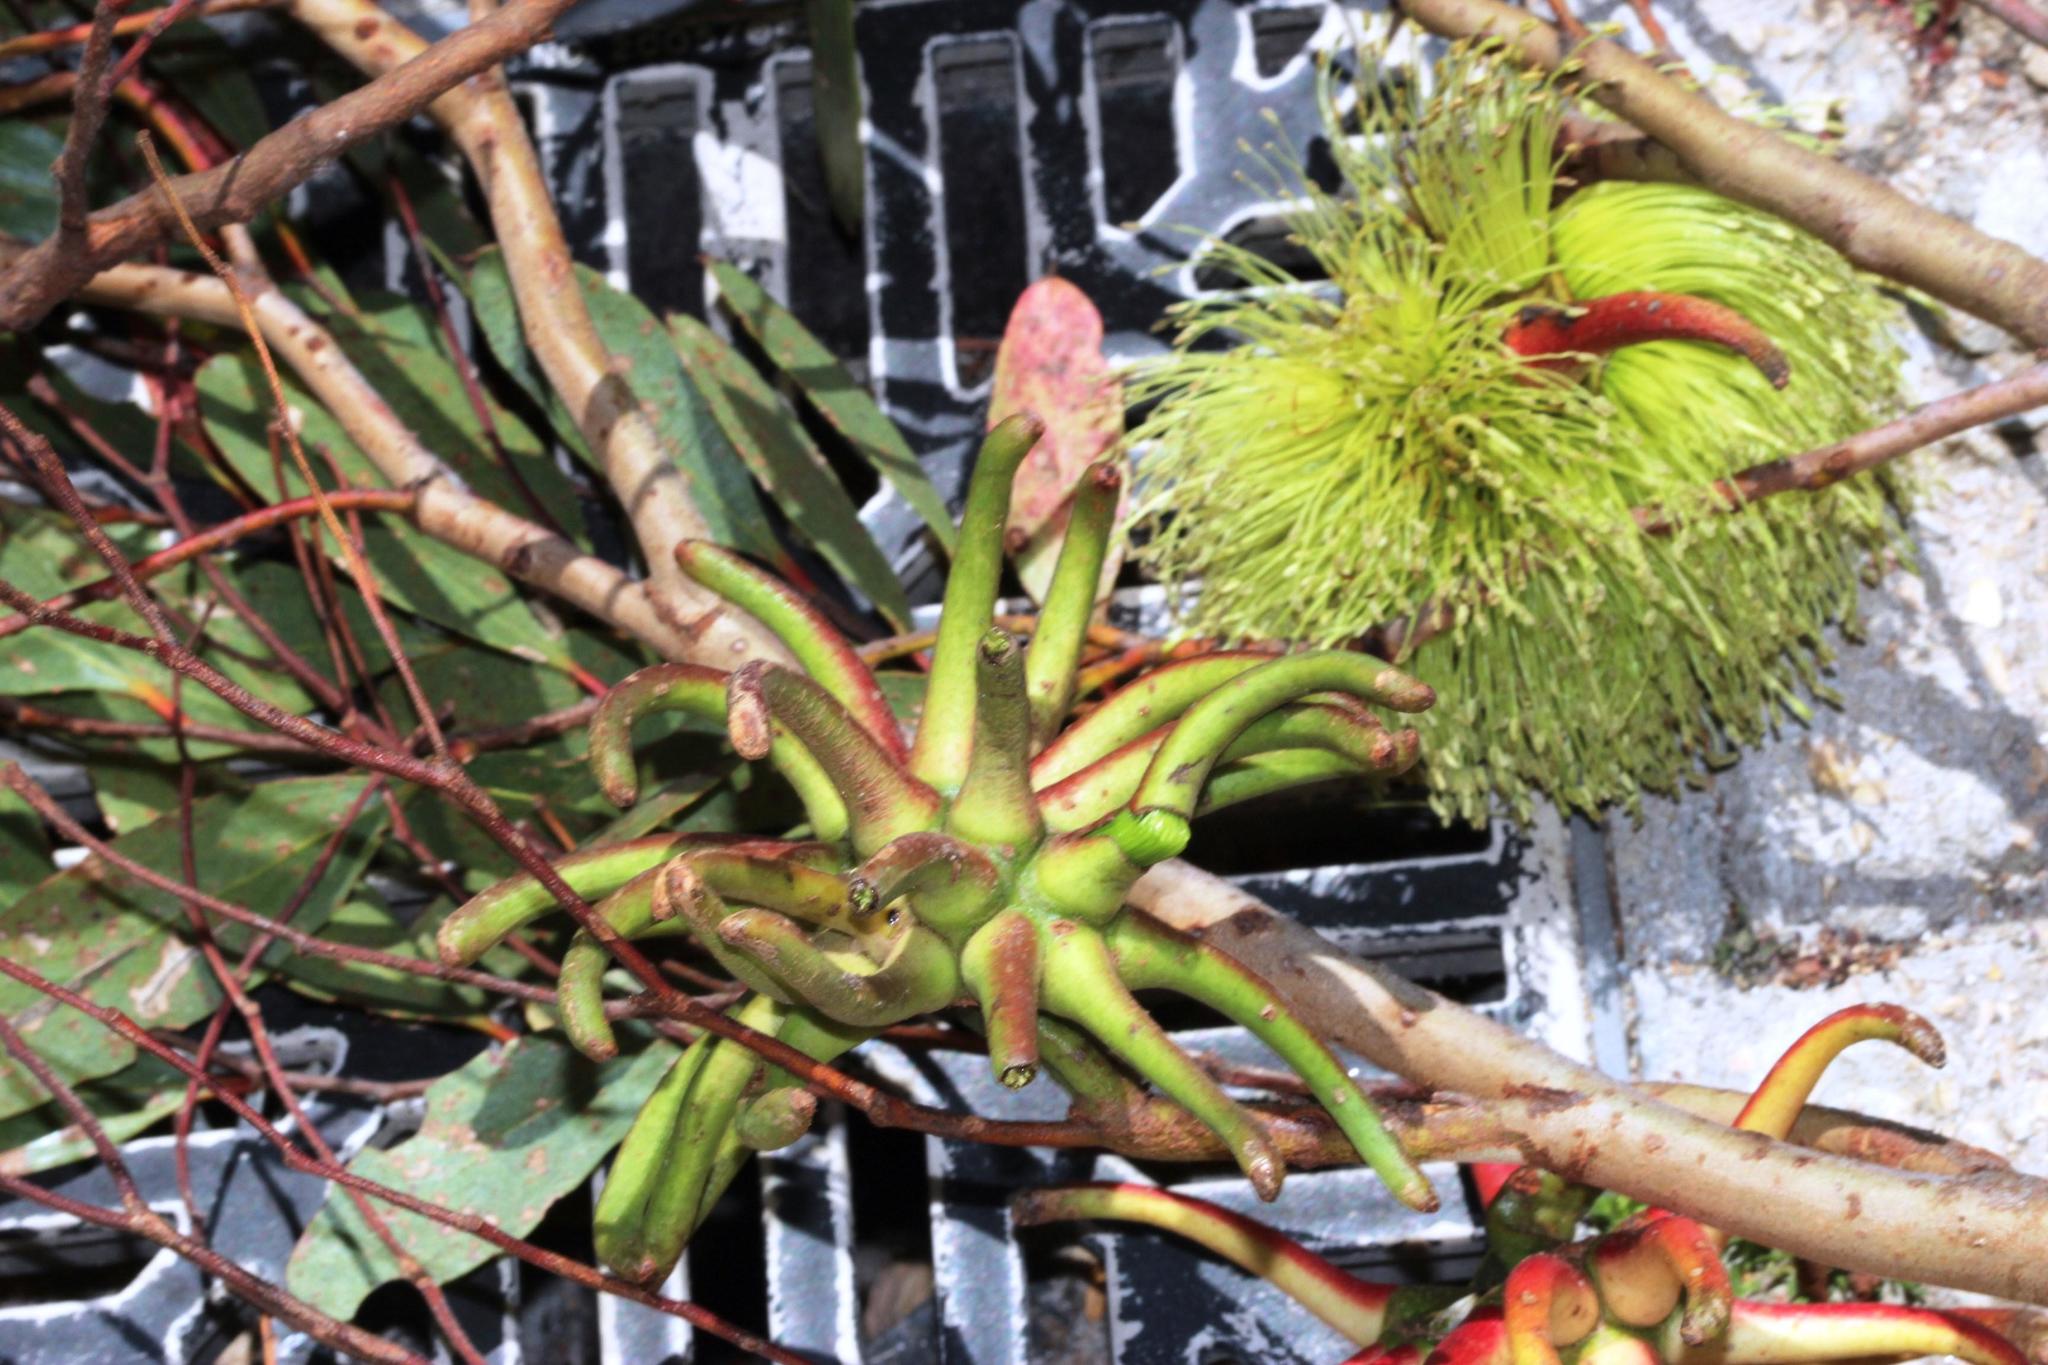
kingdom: Plantae
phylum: Tracheophyta
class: Magnoliopsida
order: Myrtales
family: Myrtaceae
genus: Eucalyptus
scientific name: Eucalyptus conferruminata
